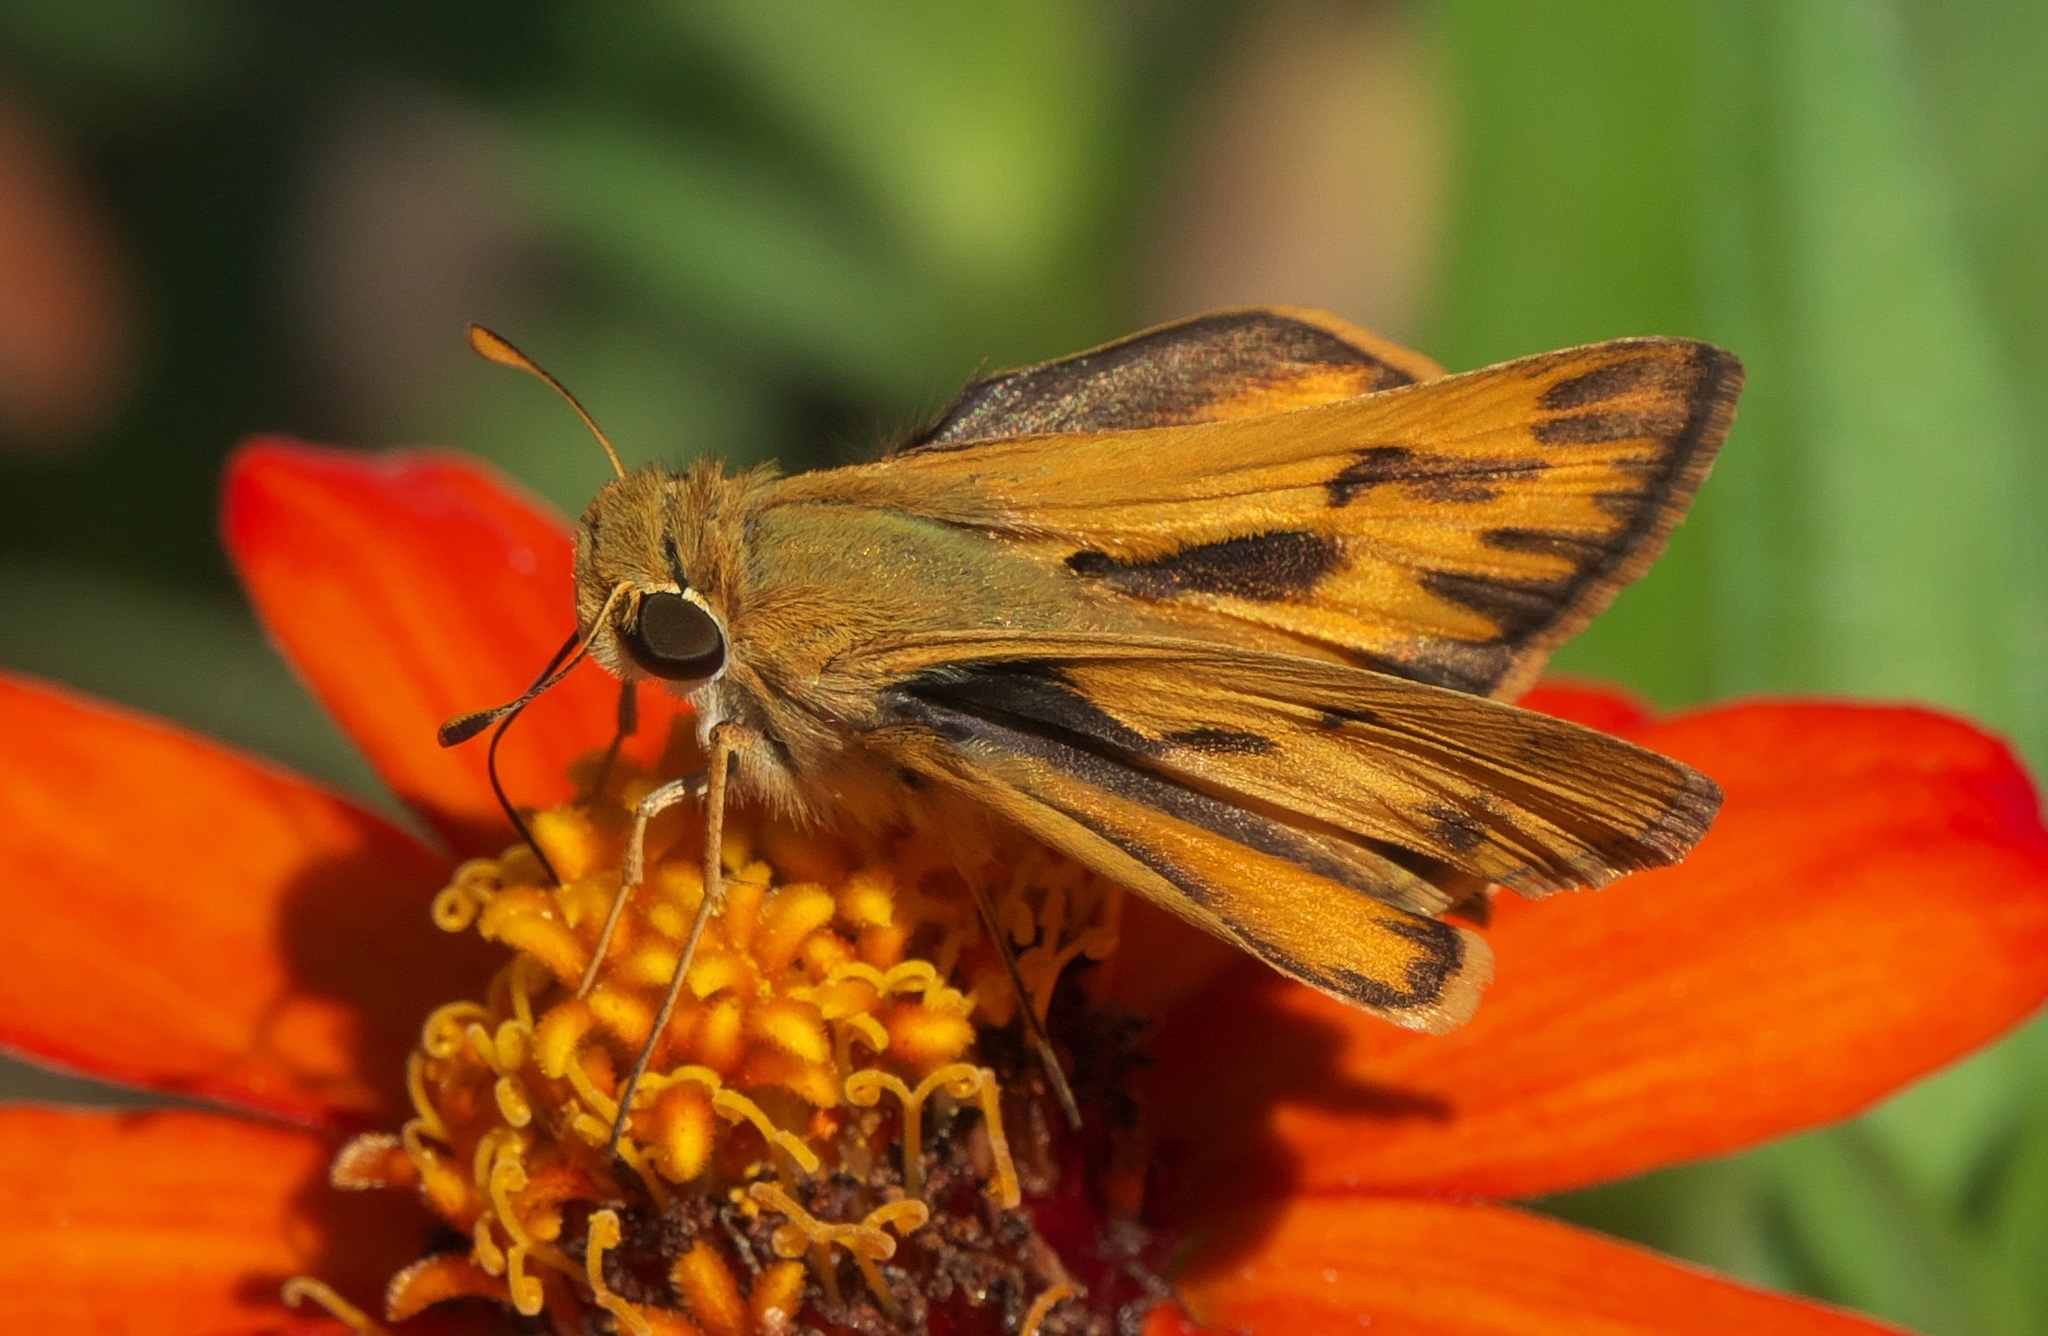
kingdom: Animalia
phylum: Arthropoda
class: Insecta
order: Lepidoptera
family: Hesperiidae
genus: Hylephila
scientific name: Hylephila phyleus
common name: Fiery skipper
